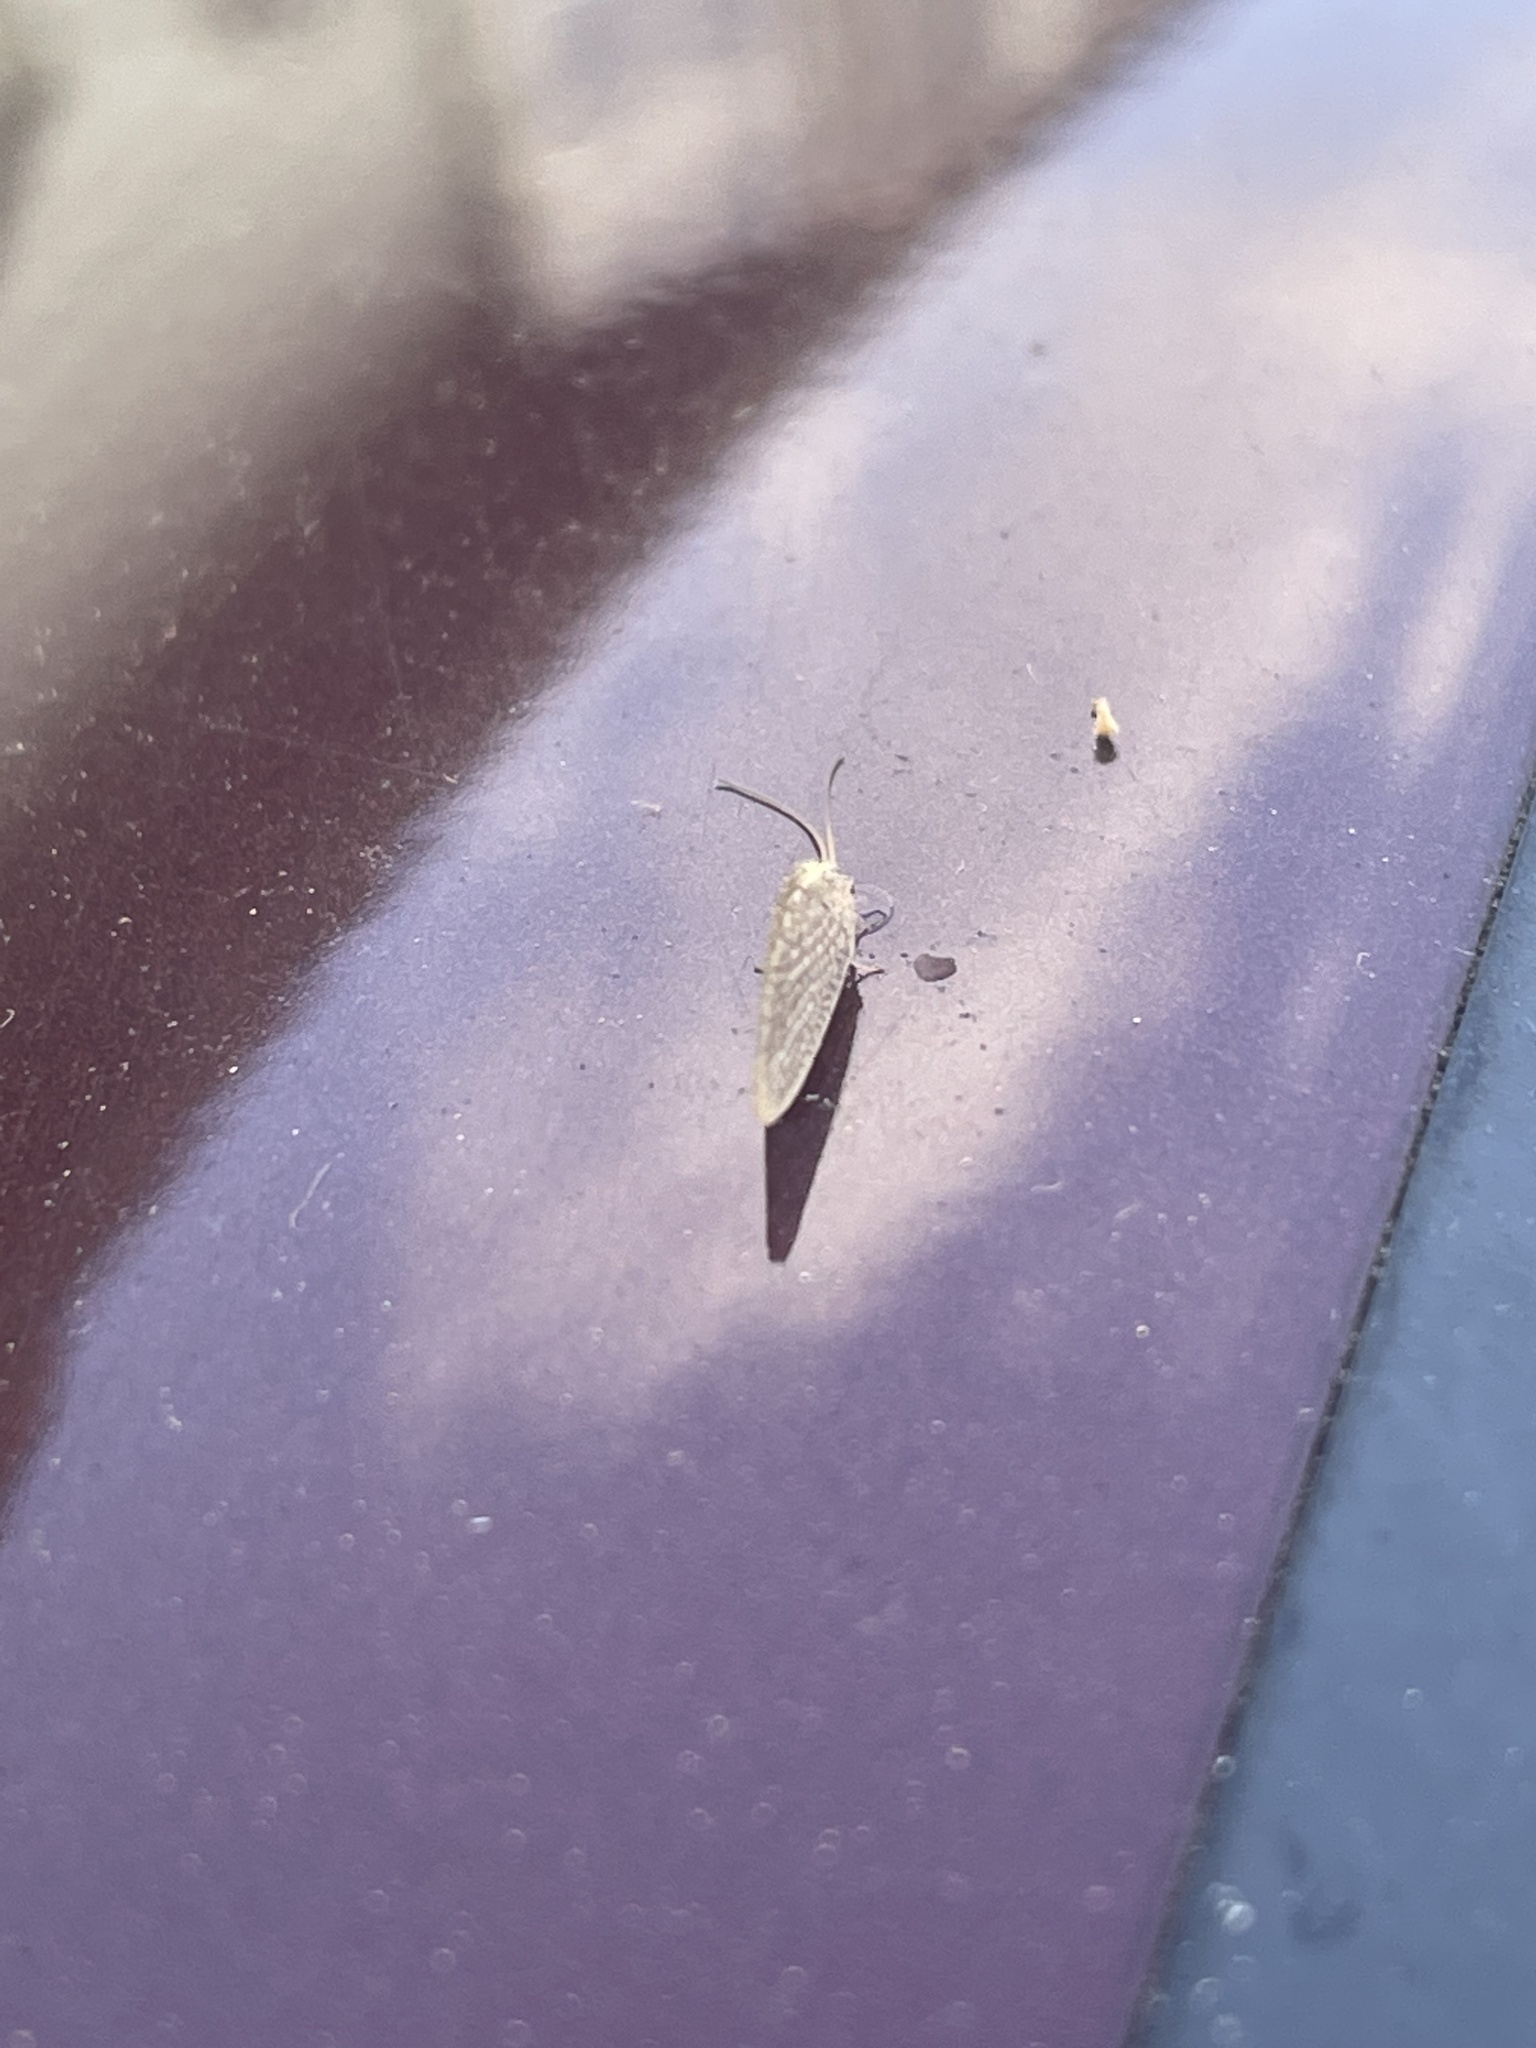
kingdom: Animalia
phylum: Arthropoda
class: Insecta
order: Neuroptera
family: Hemerobiidae
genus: Hemerobius
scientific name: Hemerobius stigma
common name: Brown pine lacewing
